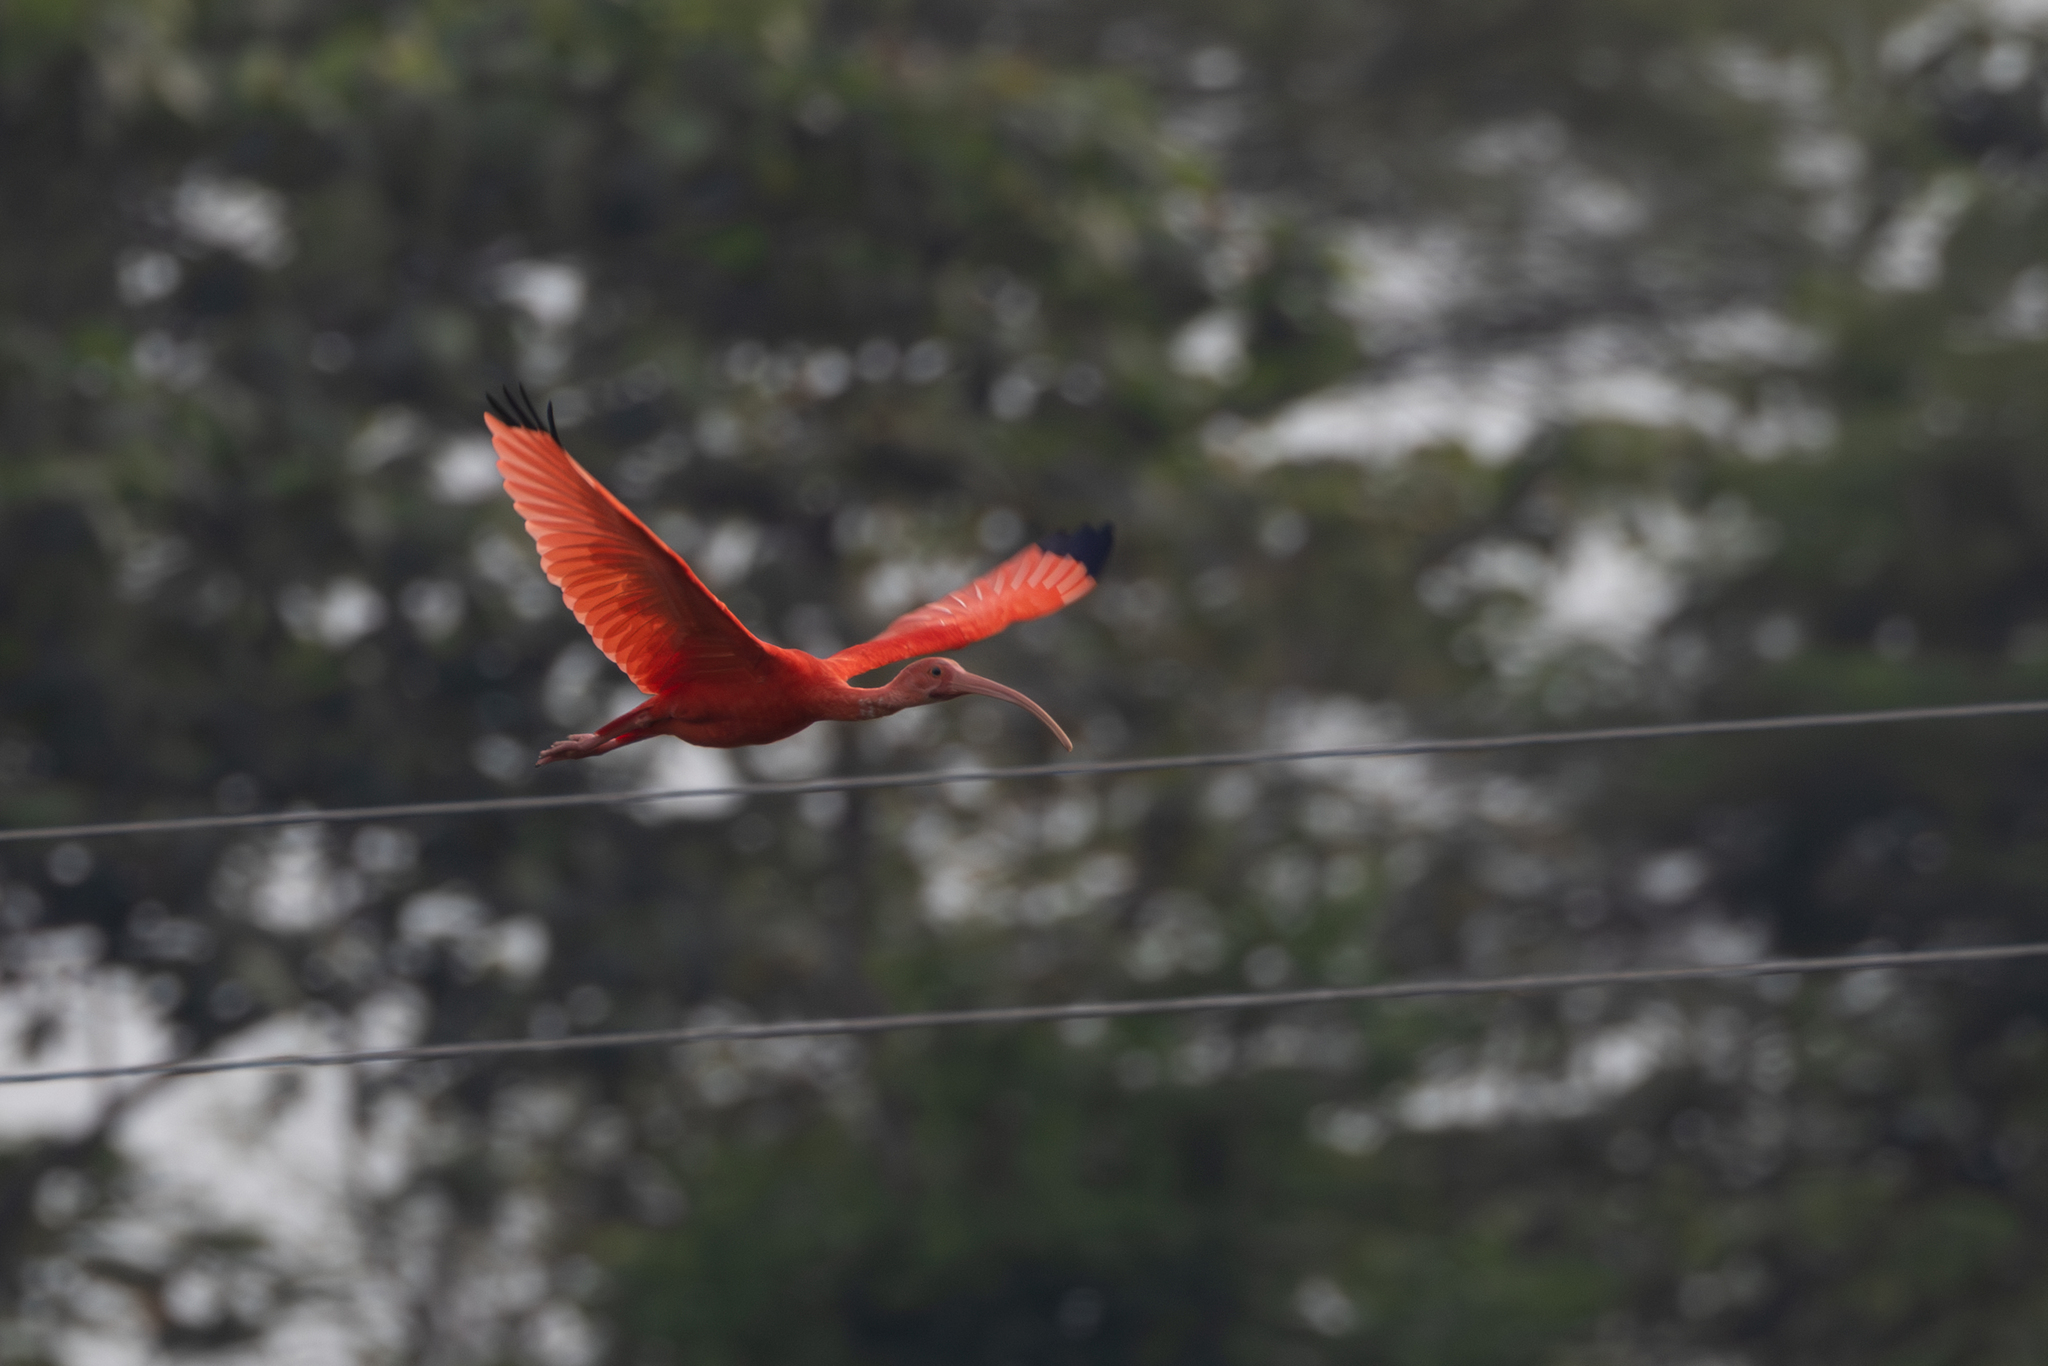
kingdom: Animalia
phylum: Chordata
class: Aves
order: Pelecaniformes
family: Threskiornithidae
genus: Eudocimus
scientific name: Eudocimus ruber
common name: Scarlet ibis
